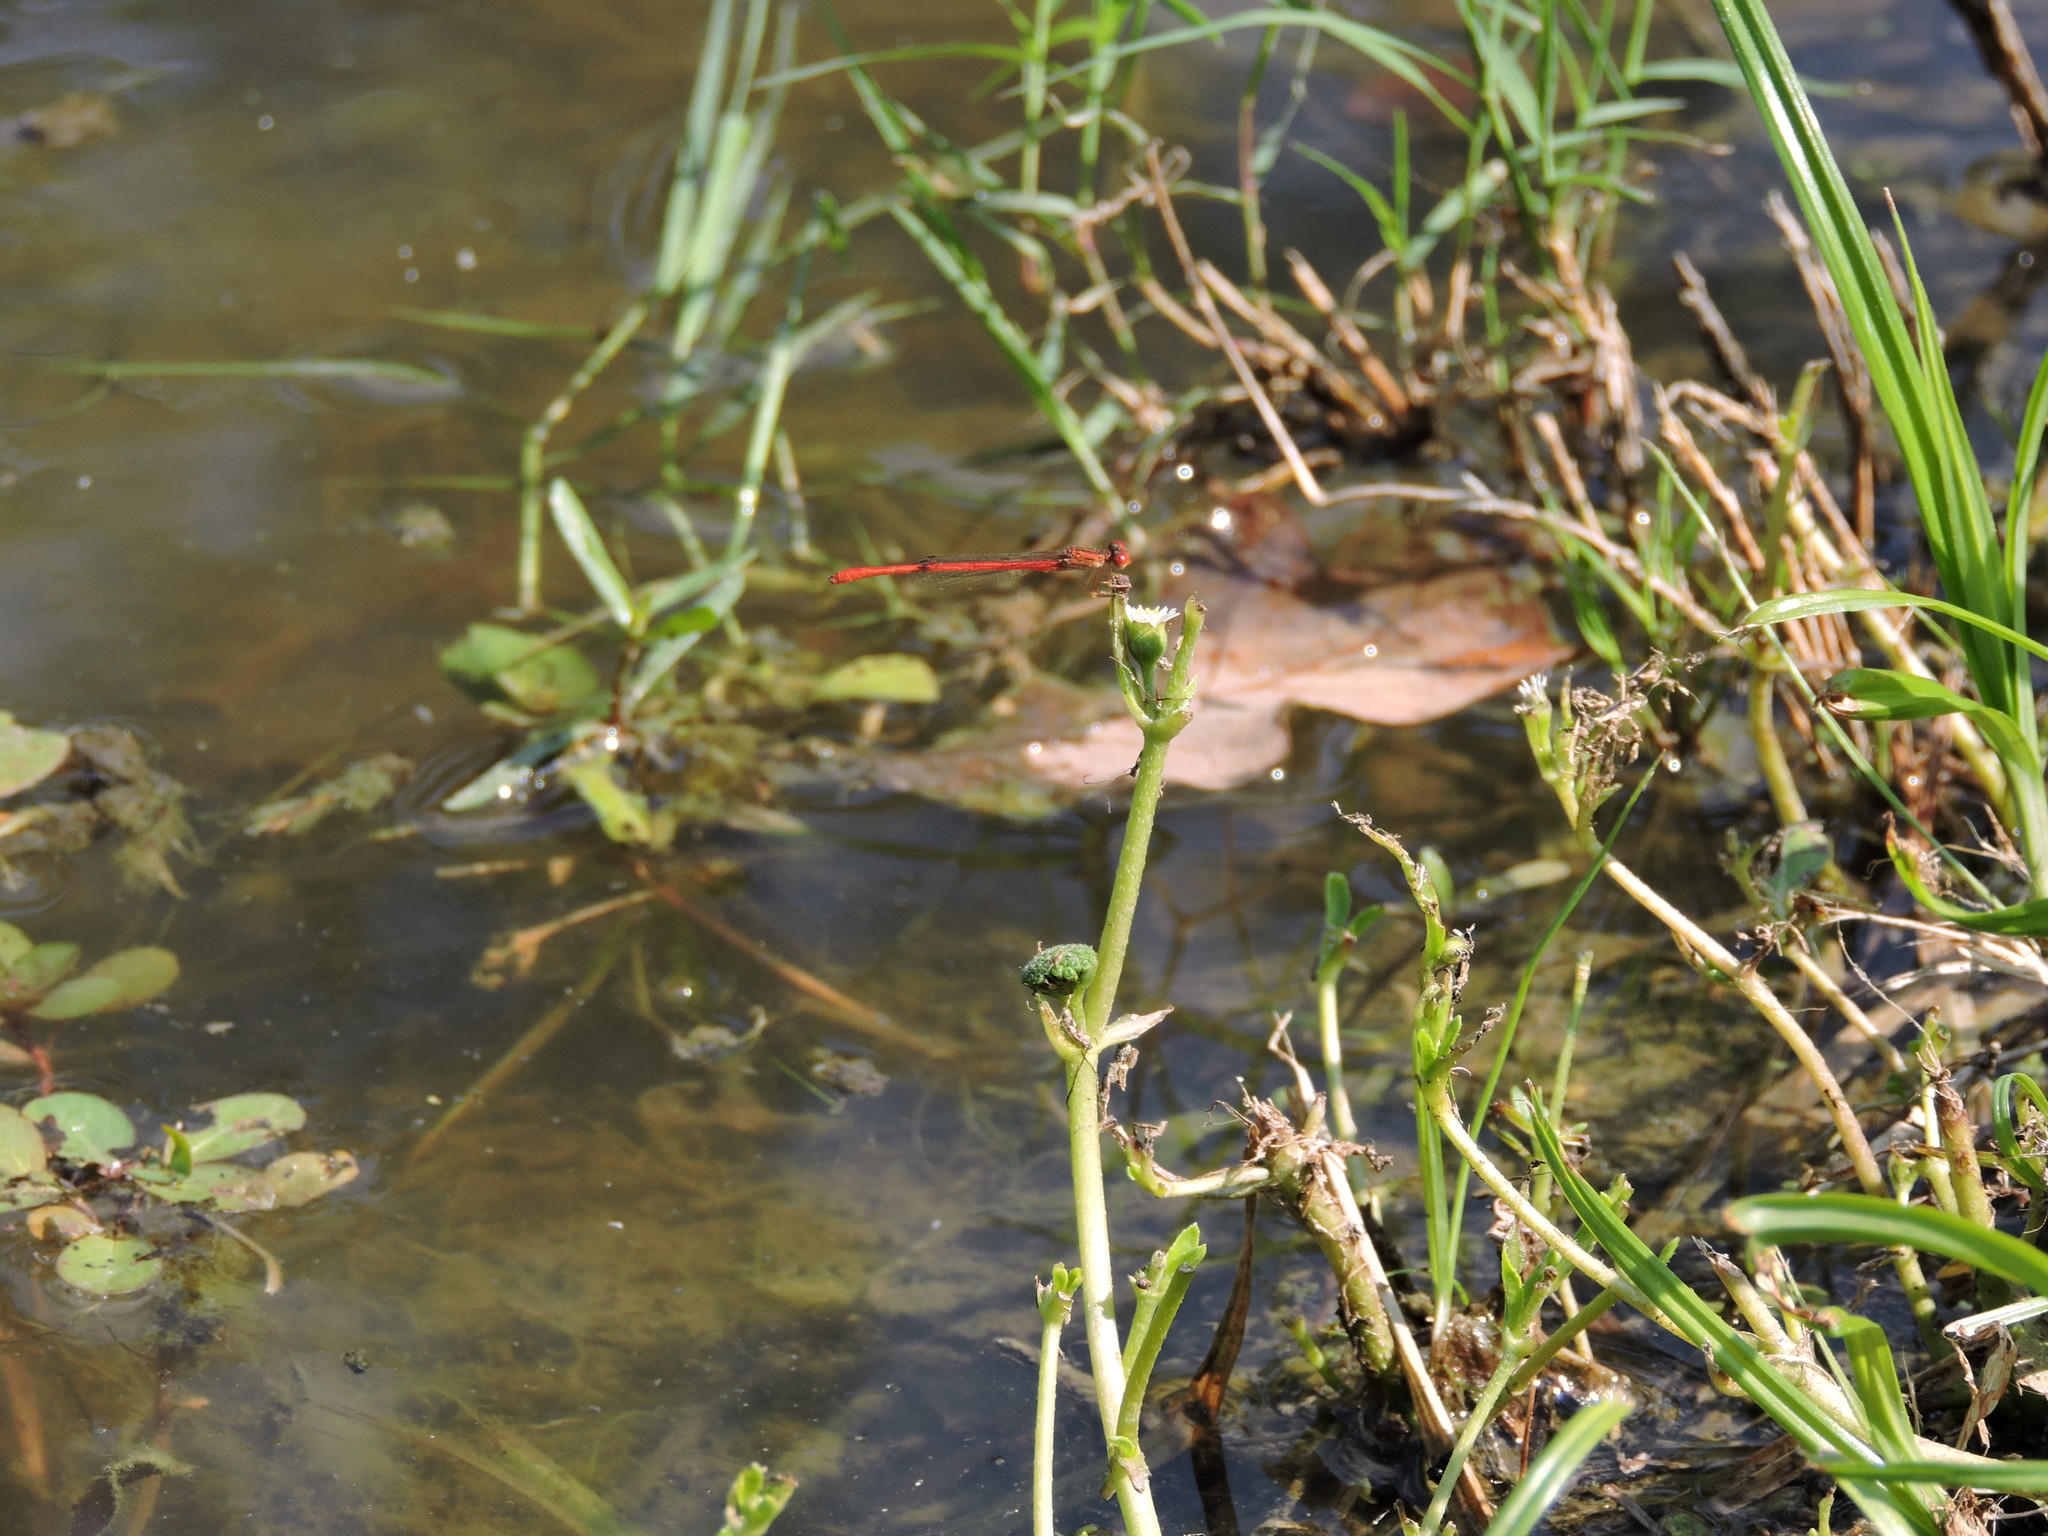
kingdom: Animalia
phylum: Arthropoda
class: Insecta
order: Odonata
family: Coenagrionidae
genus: Telebasis
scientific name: Telebasis salva
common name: Desert firetail
